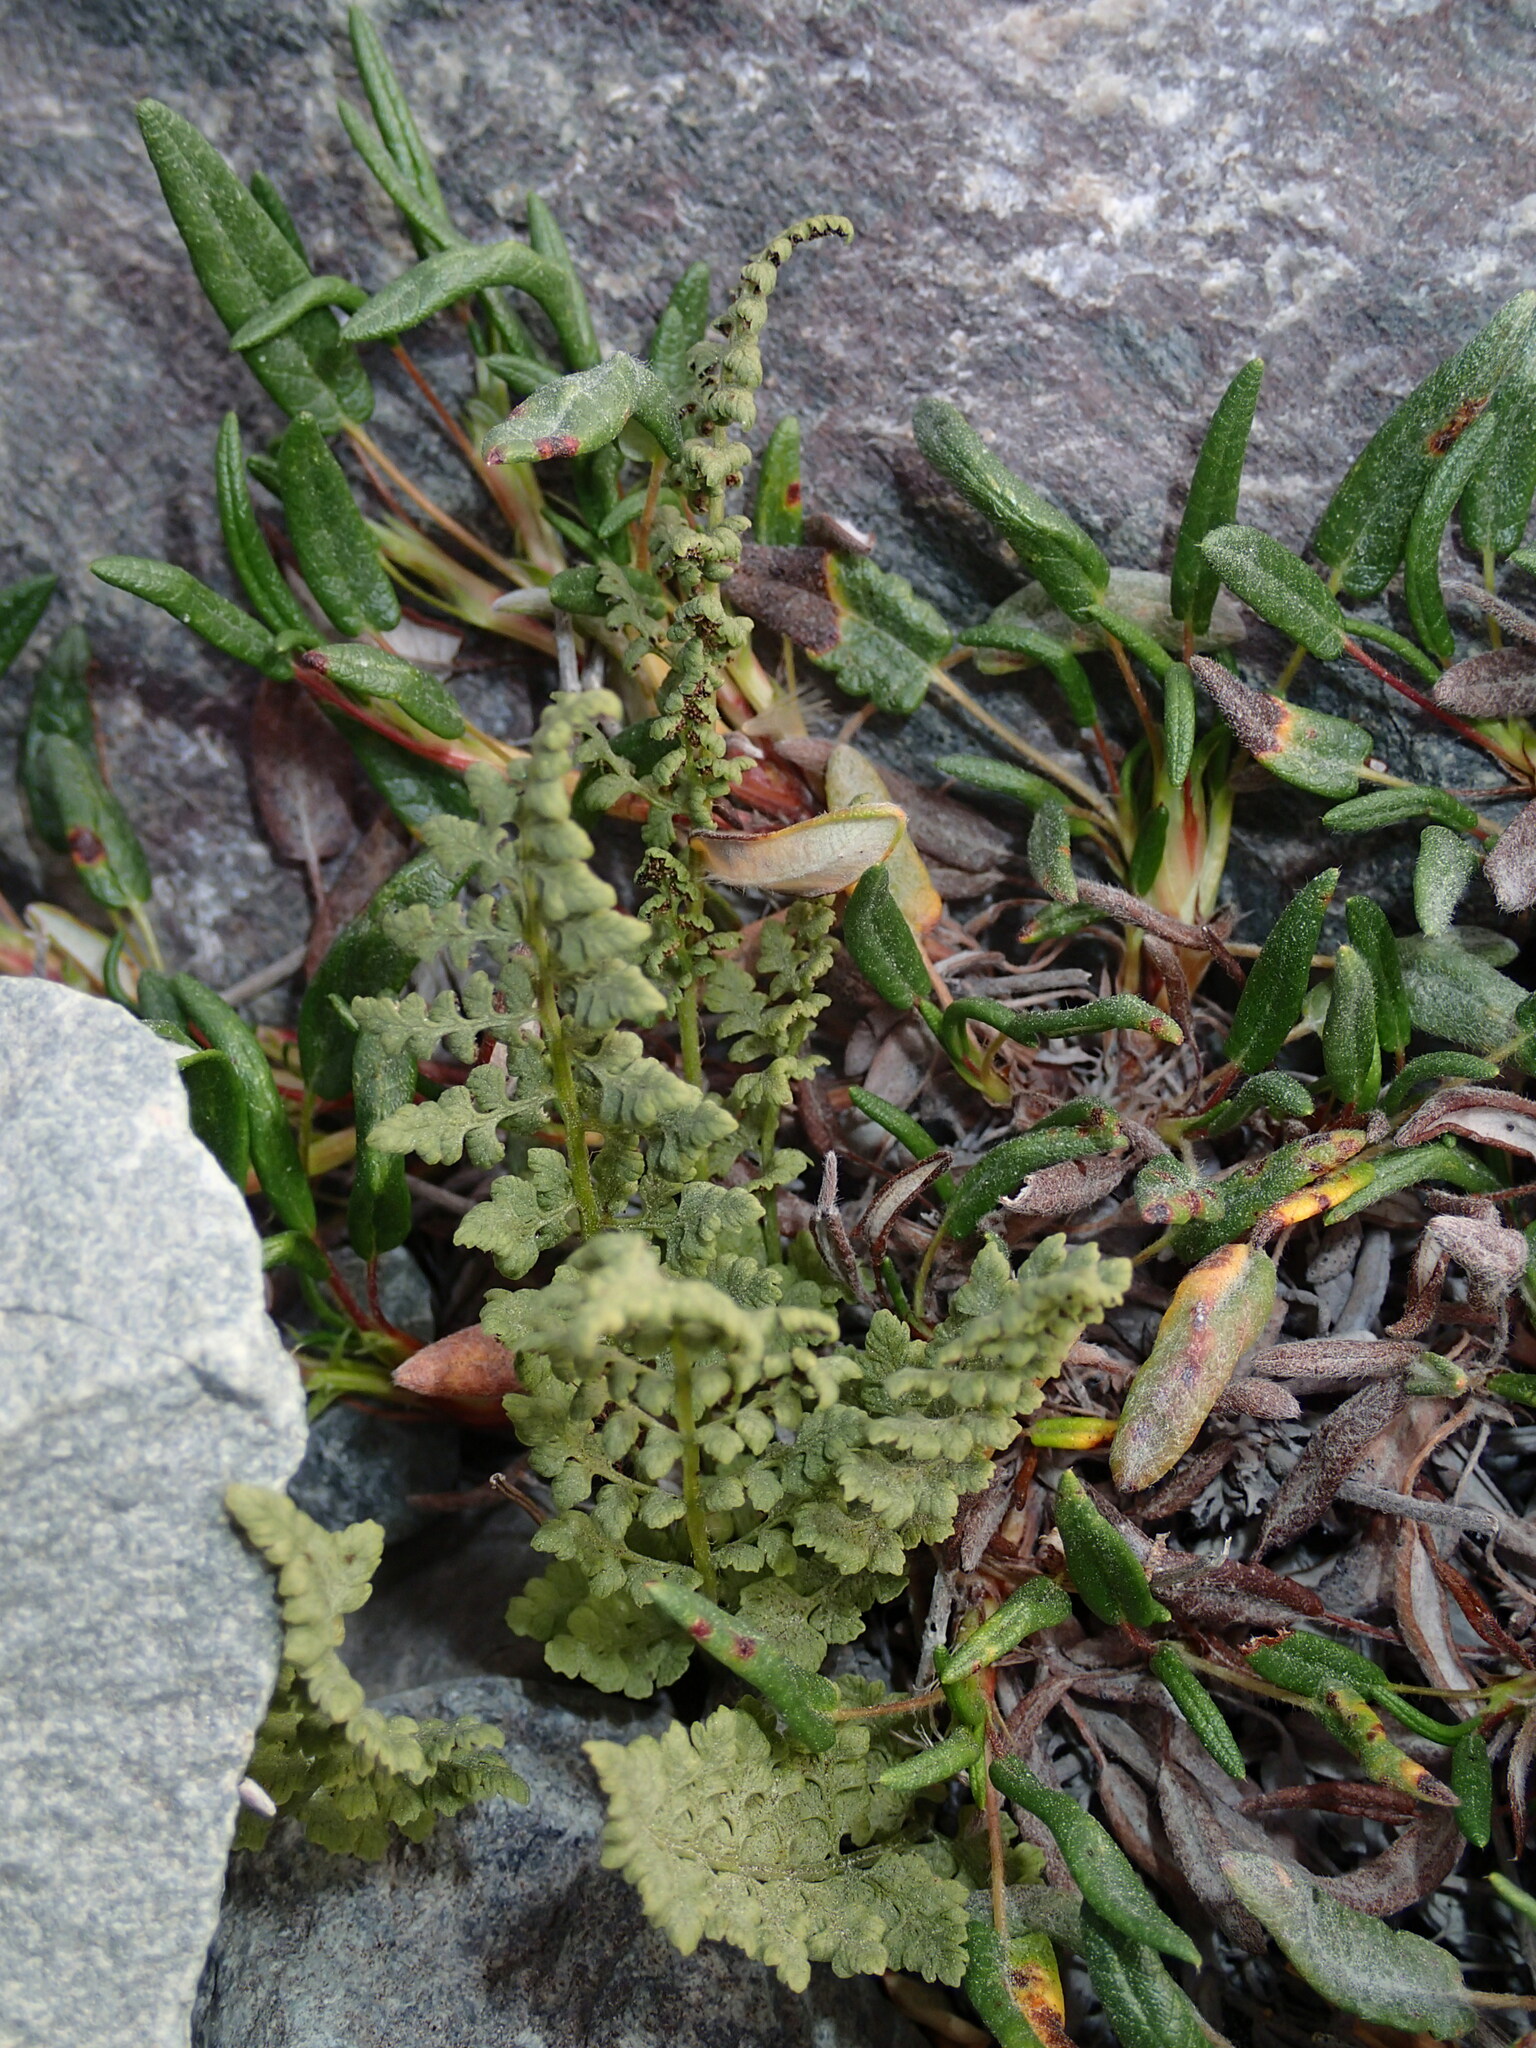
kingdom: Plantae
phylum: Tracheophyta
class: Polypodiopsida
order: Polypodiales
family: Cystopteridaceae
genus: Cystopteris
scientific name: Cystopteris fragilis
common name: Brittle bladder fern
